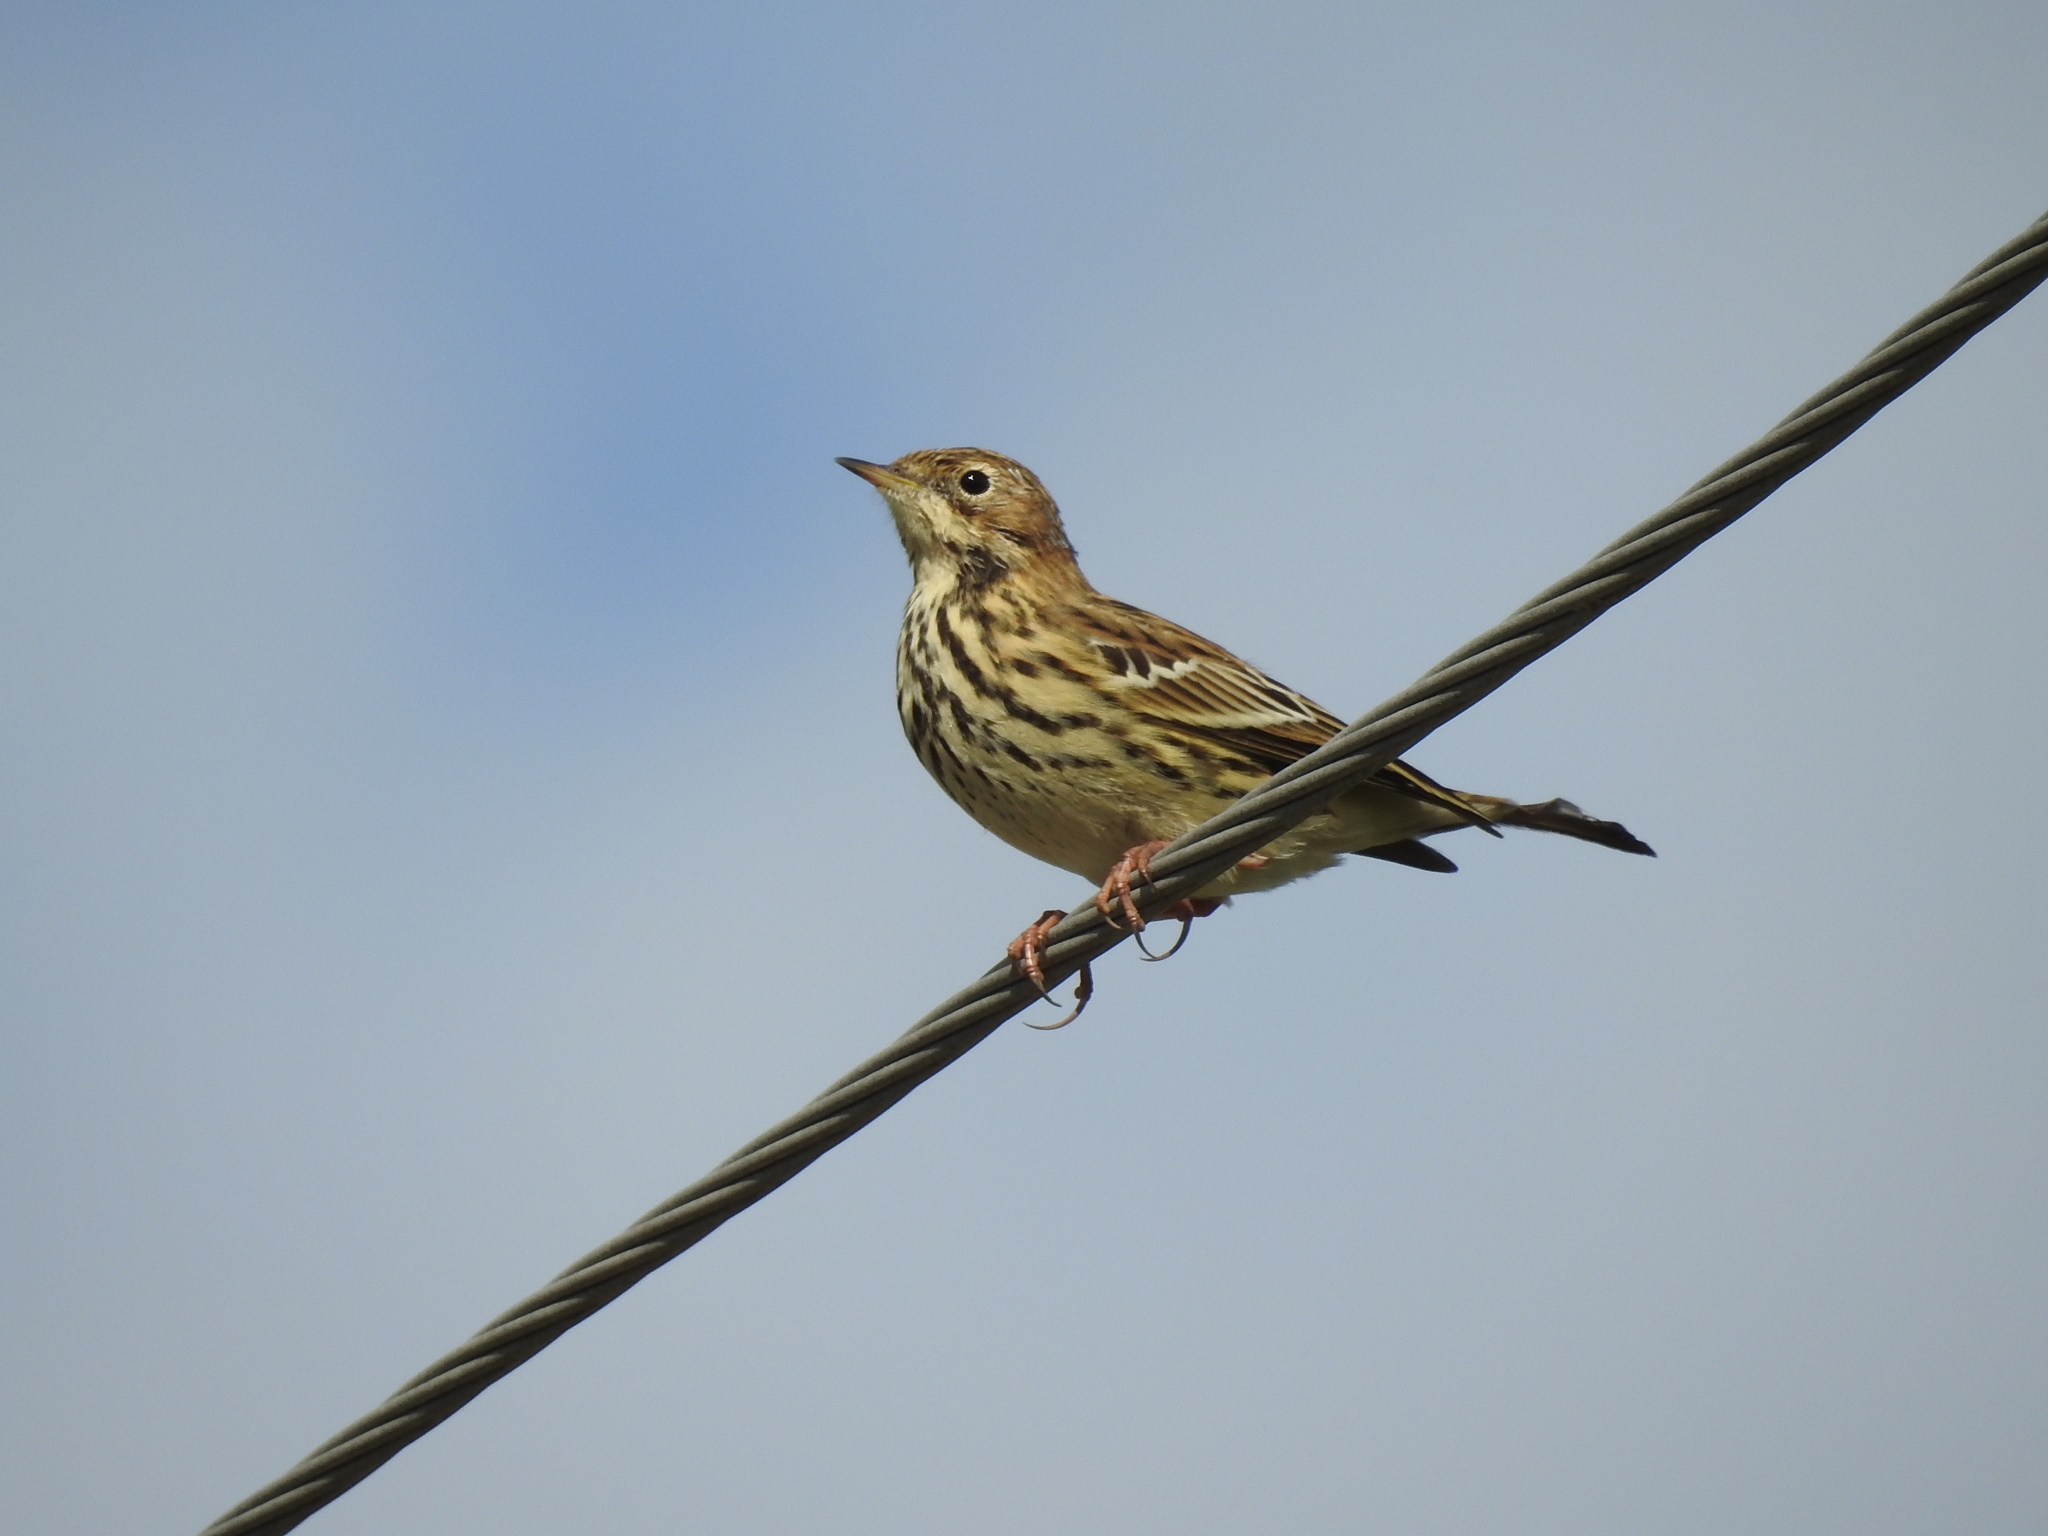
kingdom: Animalia
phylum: Chordata
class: Aves
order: Passeriformes
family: Motacillidae
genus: Anthus
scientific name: Anthus cervinus
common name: Red-throated pipit
